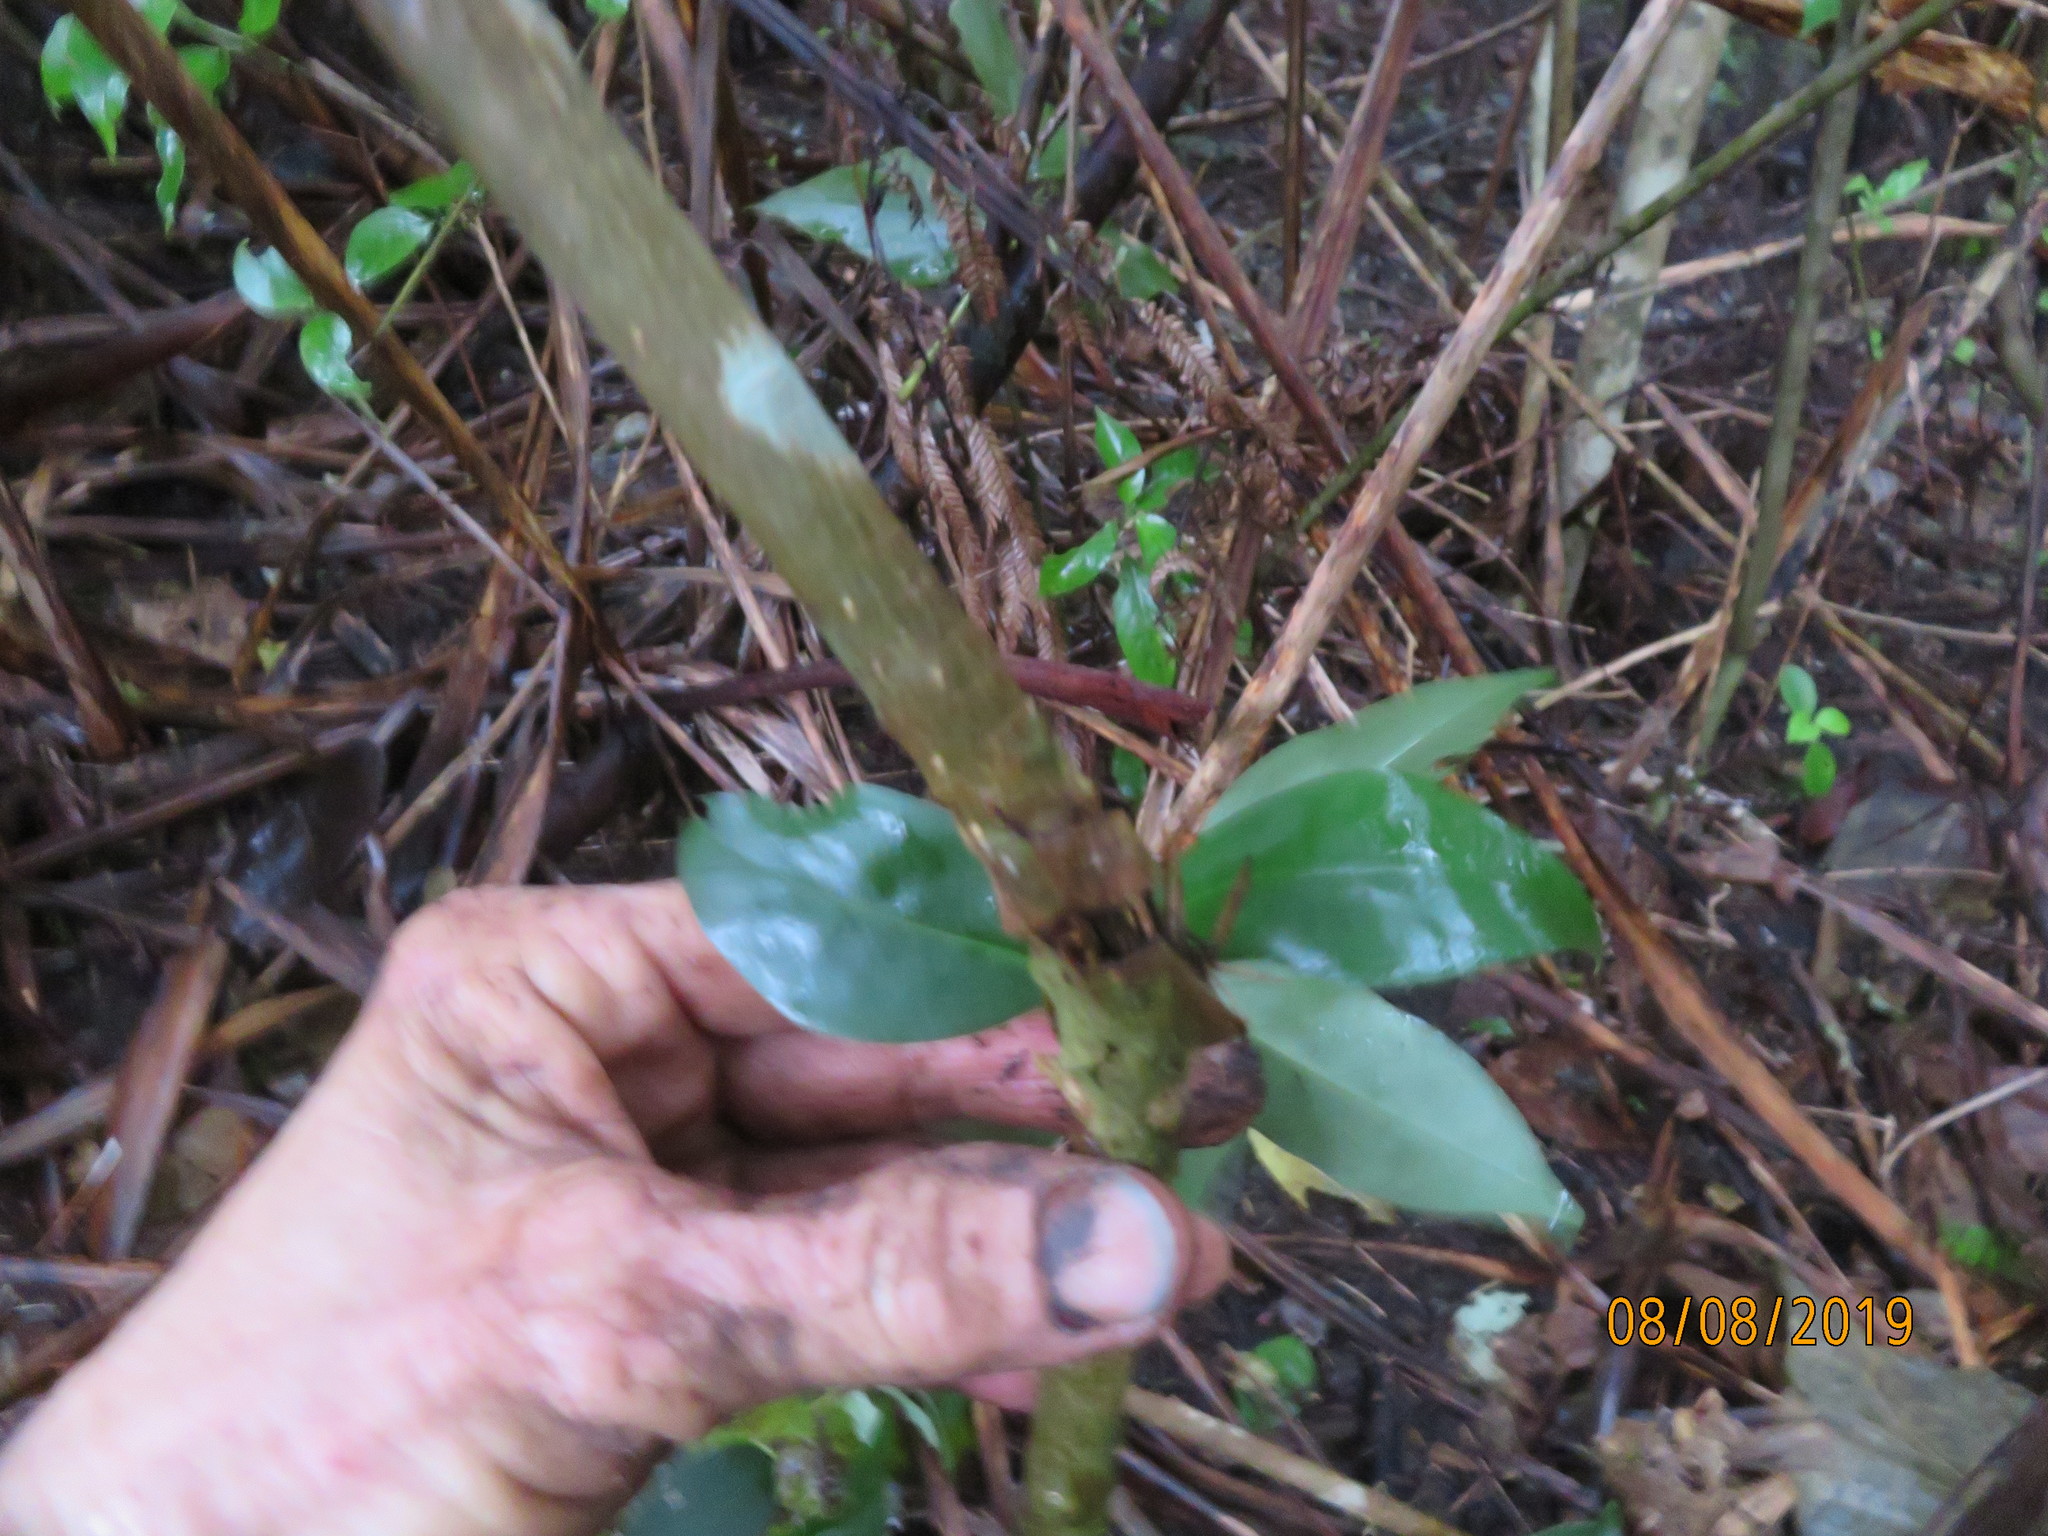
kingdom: Plantae
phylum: Tracheophyta
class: Magnoliopsida
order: Lamiales
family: Oleaceae
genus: Ligustrum
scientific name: Ligustrum lucidum
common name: Glossy privet
